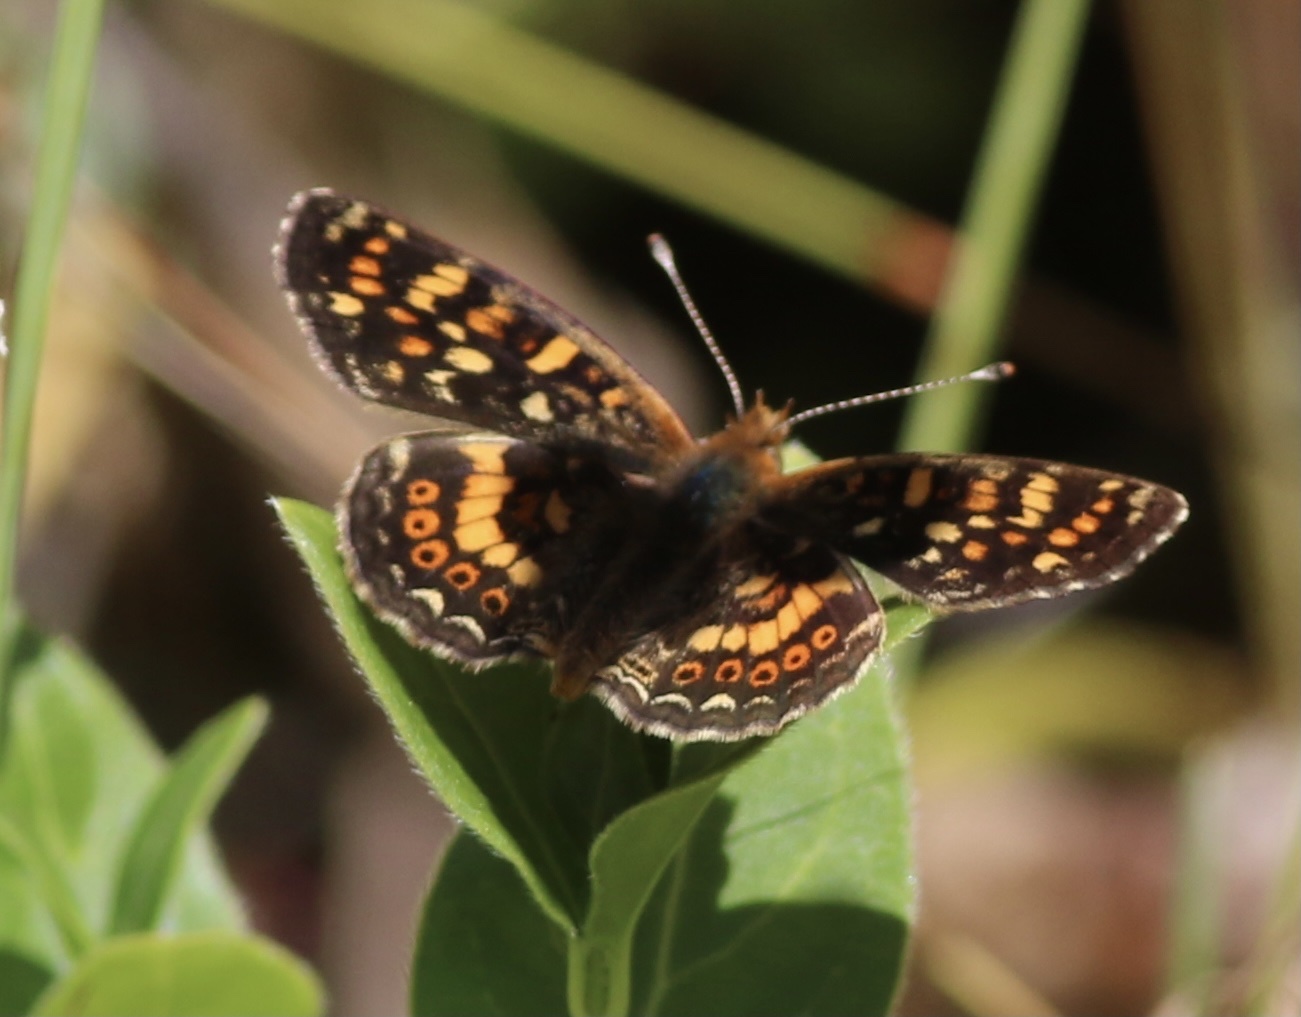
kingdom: Animalia
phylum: Arthropoda
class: Insecta
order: Lepidoptera
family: Nymphalidae
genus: Phyciodes
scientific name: Phyciodes tharos
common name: Pearl crescent
